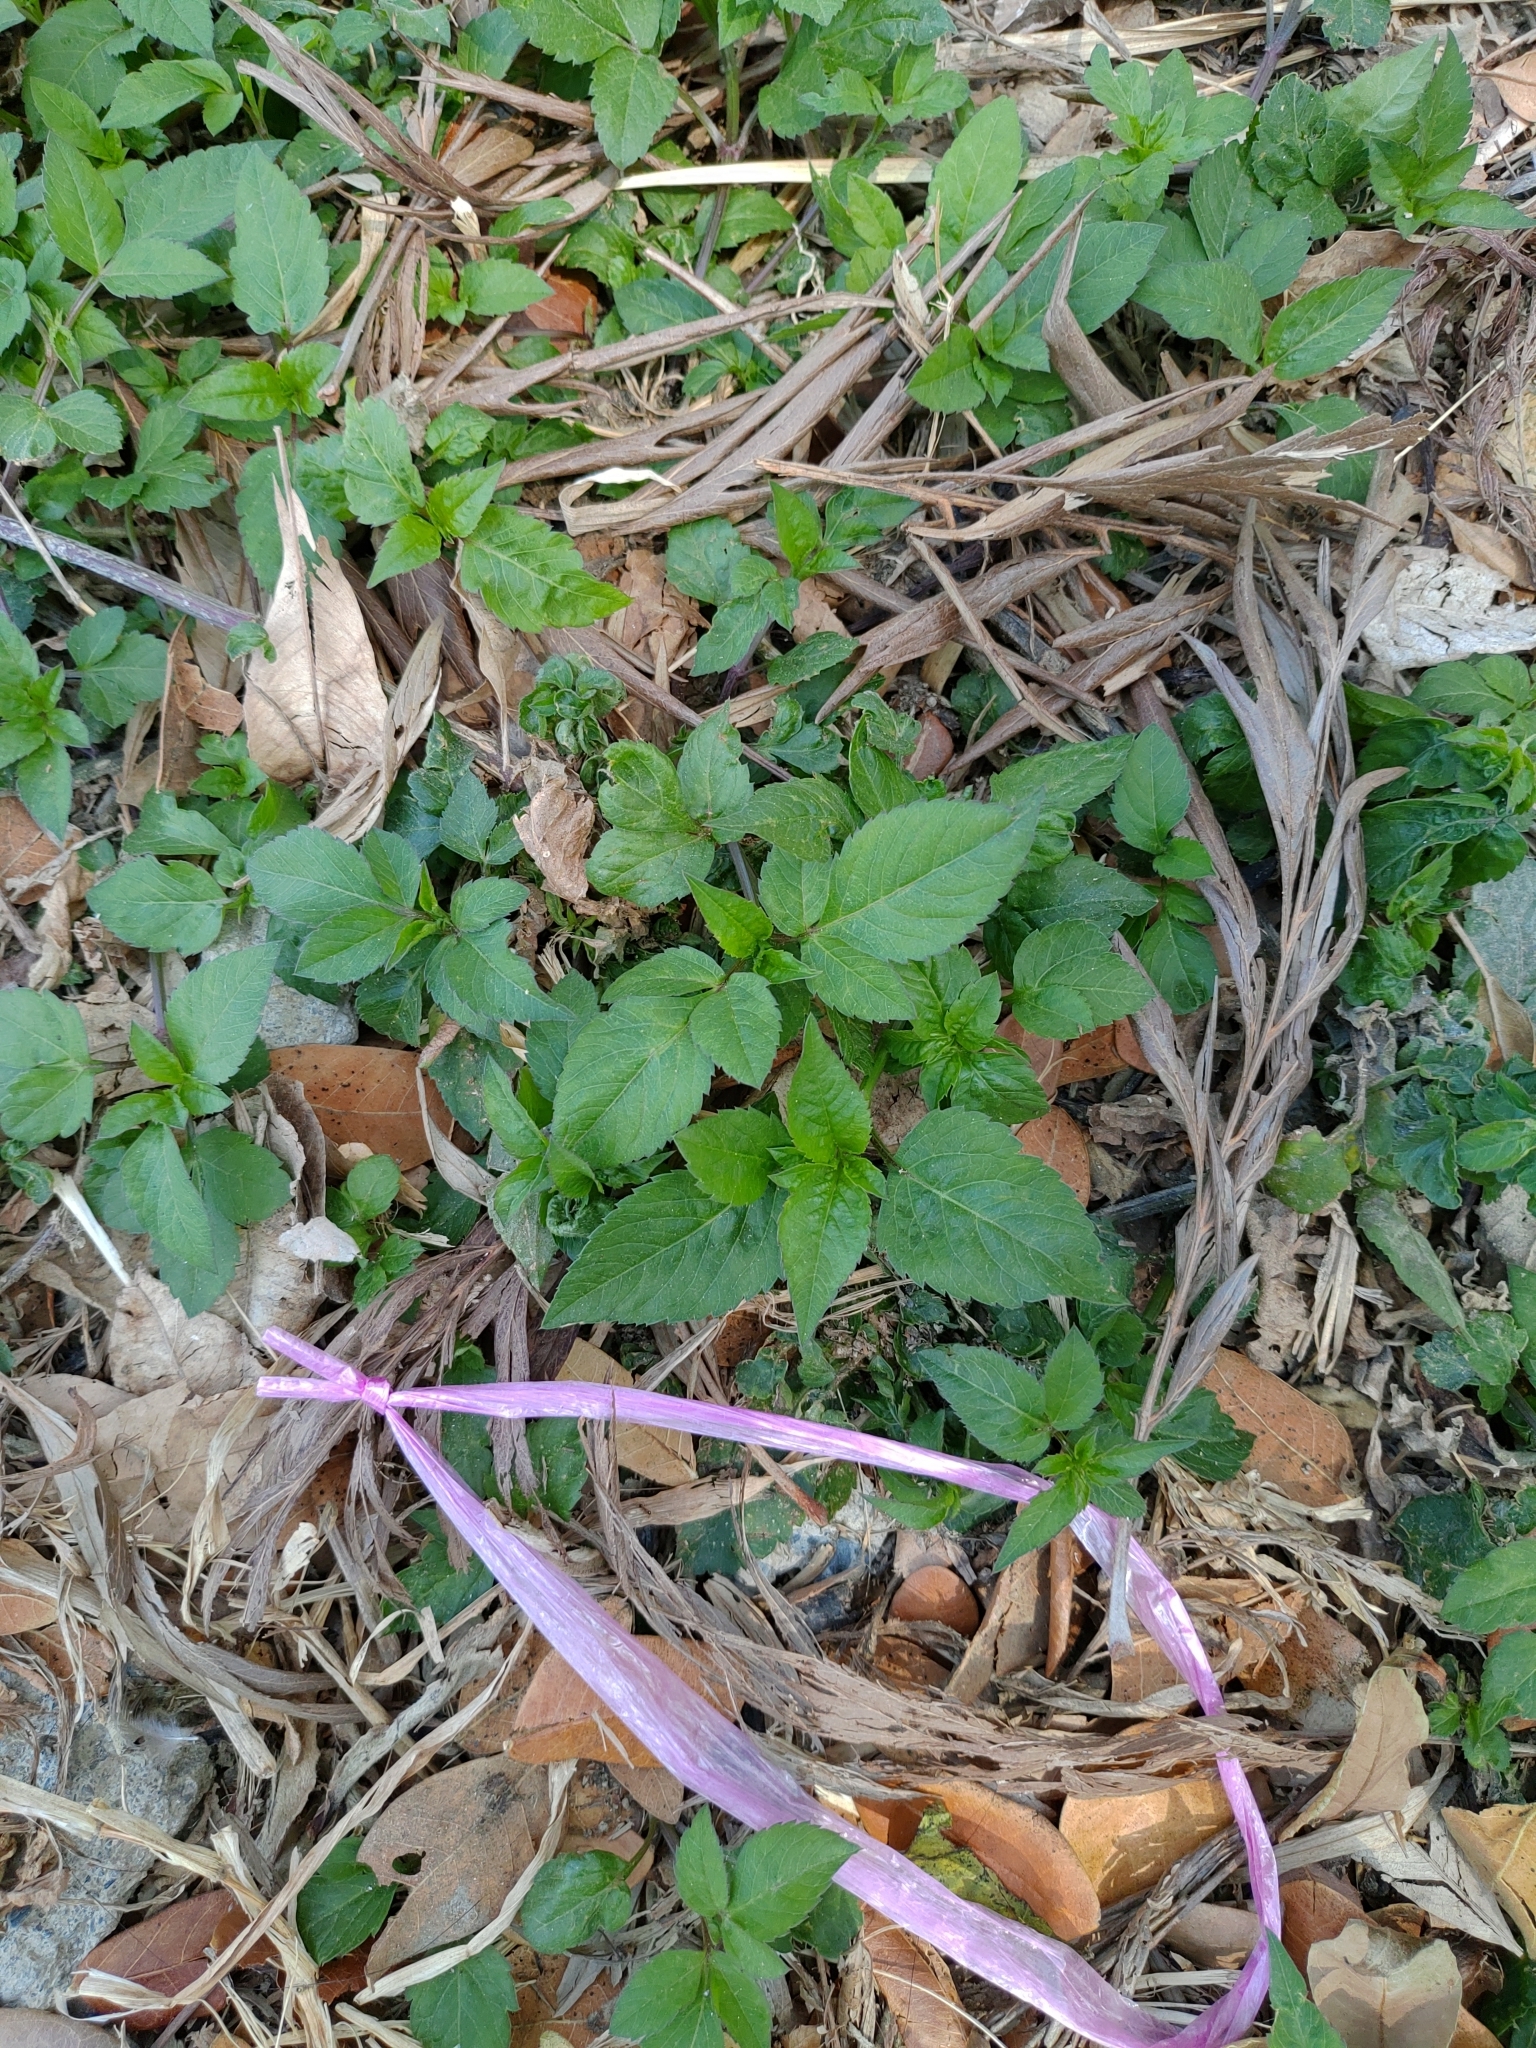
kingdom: Plantae
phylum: Tracheophyta
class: Magnoliopsida
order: Asterales
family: Asteraceae
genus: Bidens
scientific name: Bidens alba
